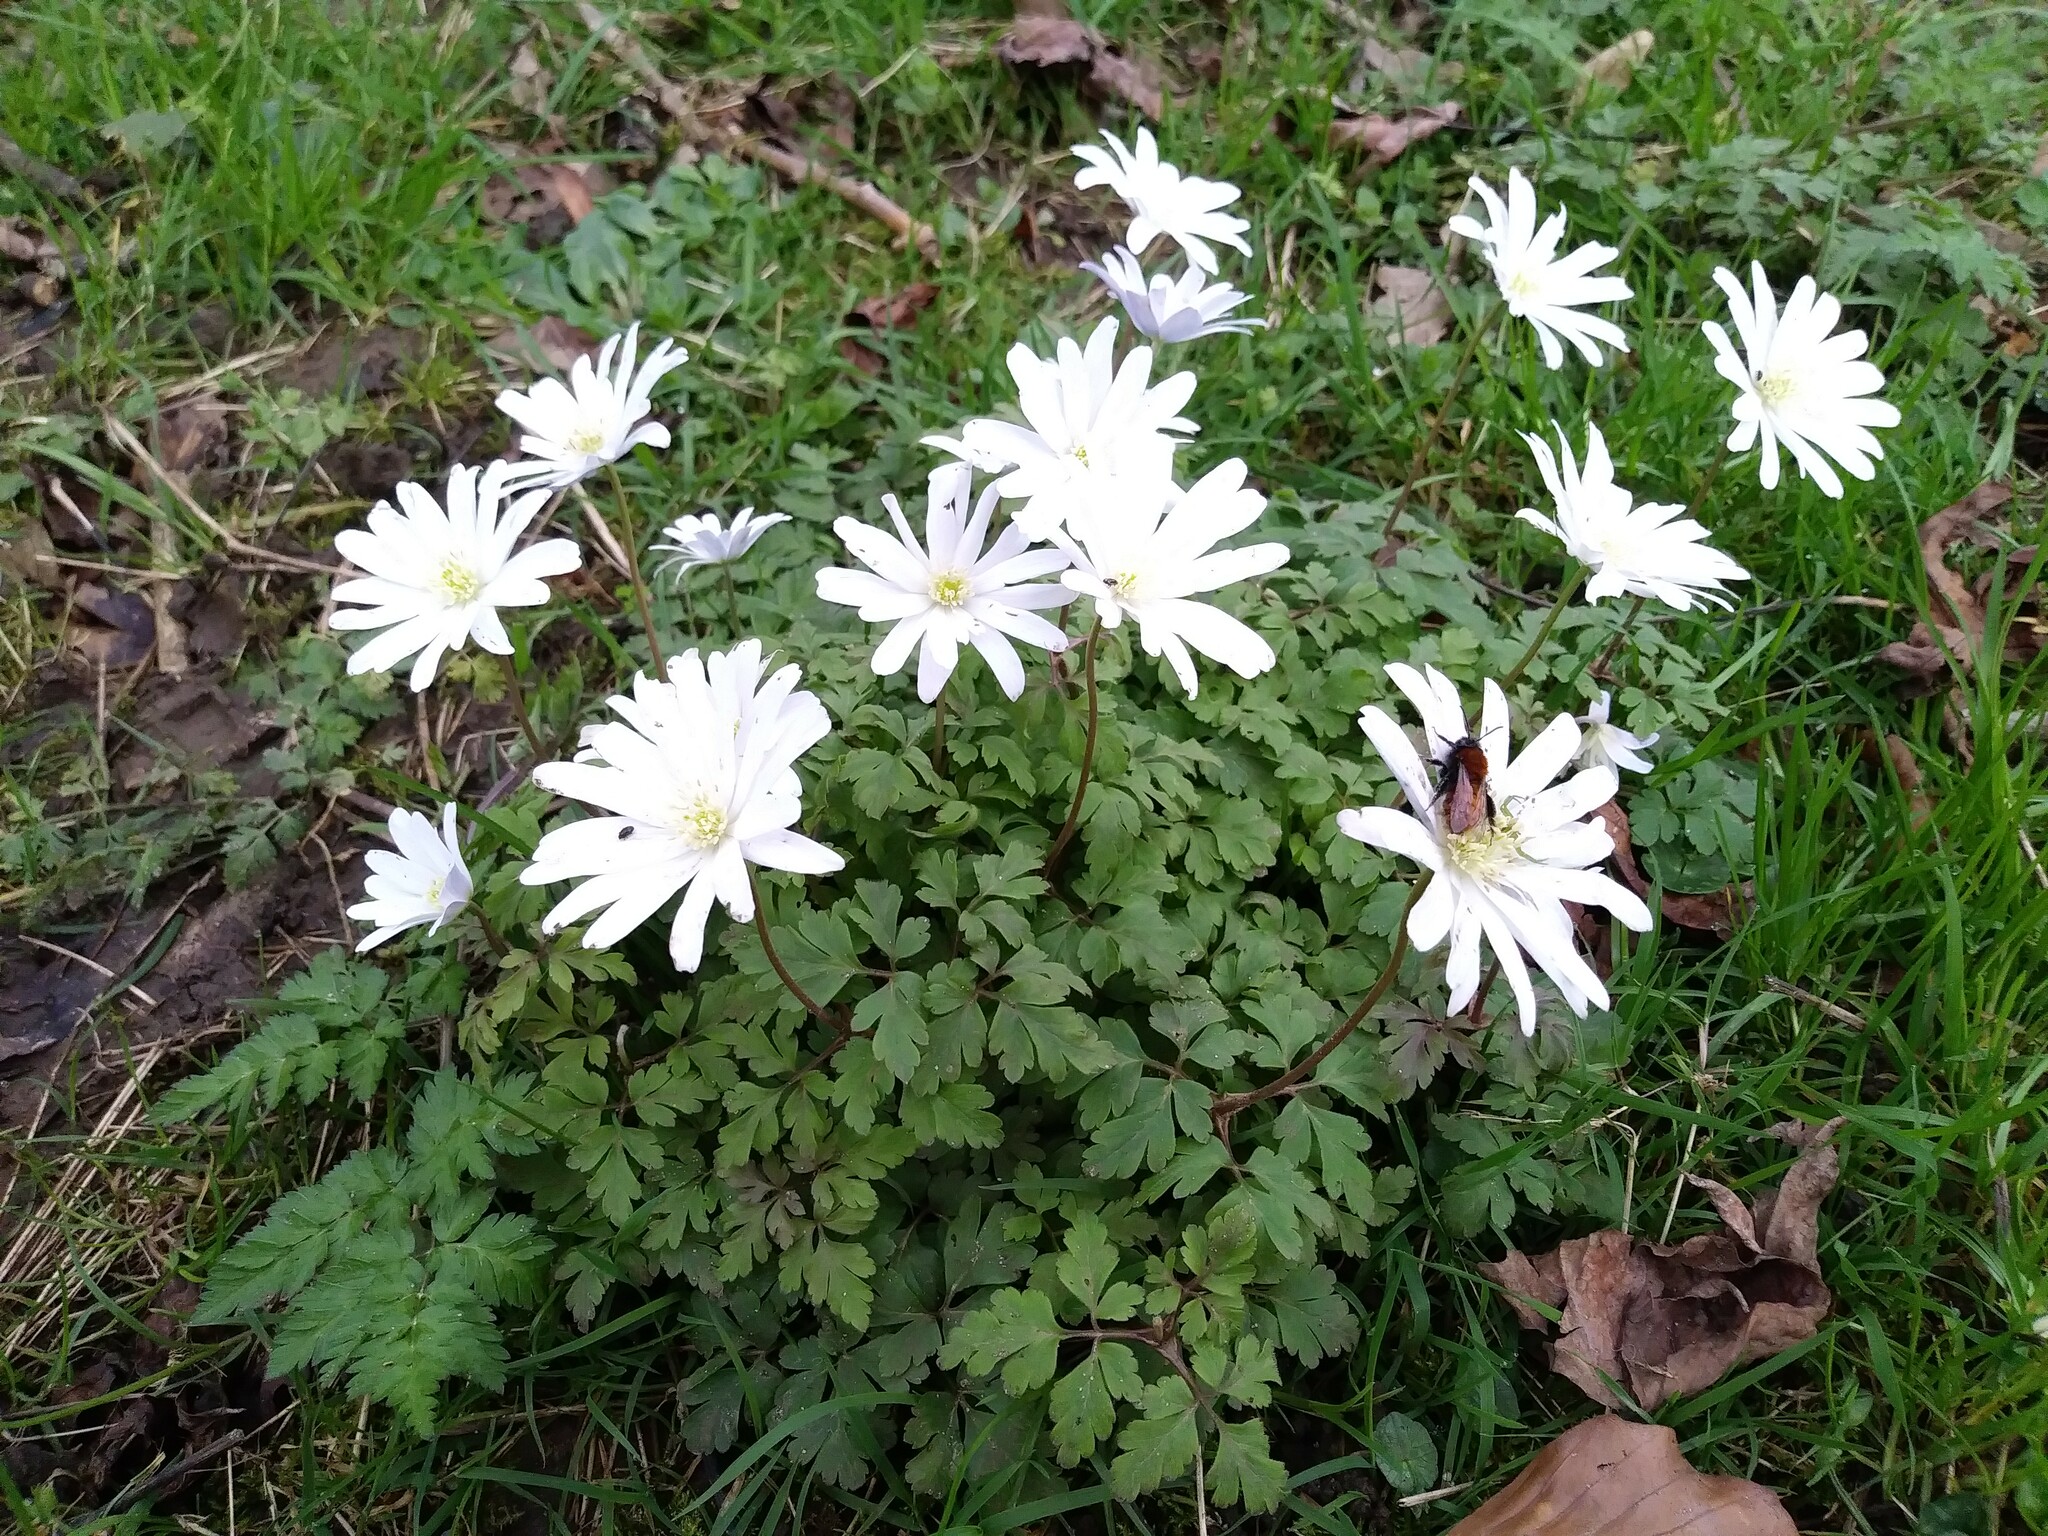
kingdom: Plantae
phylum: Tracheophyta
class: Magnoliopsida
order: Ranunculales
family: Ranunculaceae
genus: Anemone
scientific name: Anemone apennina
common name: Blue anemone
